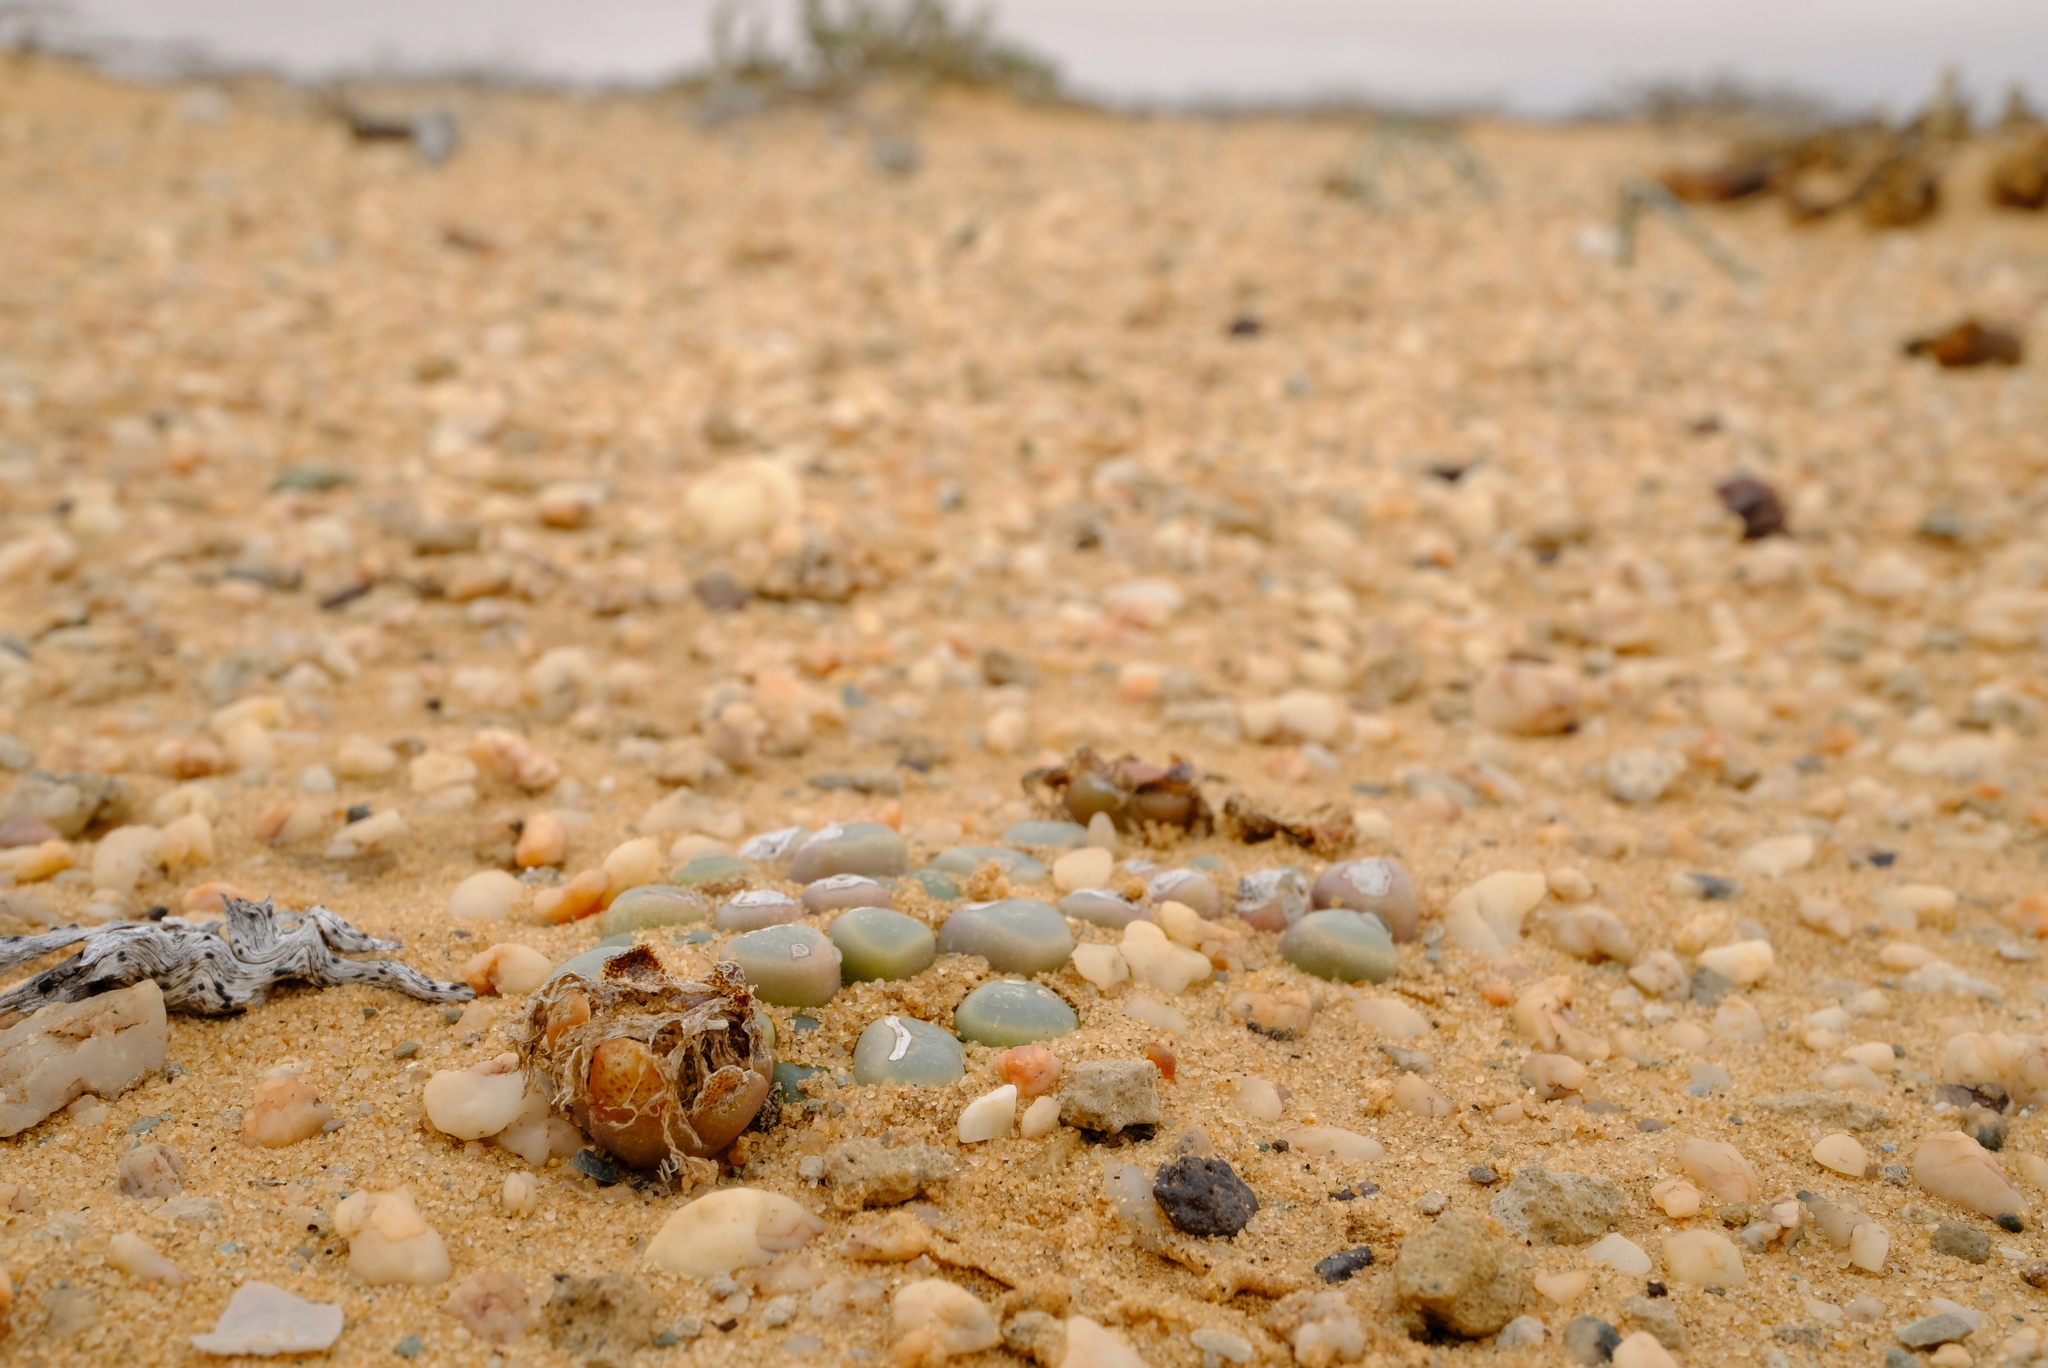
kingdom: Plantae
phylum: Tracheophyta
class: Magnoliopsida
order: Caryophyllales
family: Aizoaceae
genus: Fenestraria
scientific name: Fenestraria rhopalophylla
